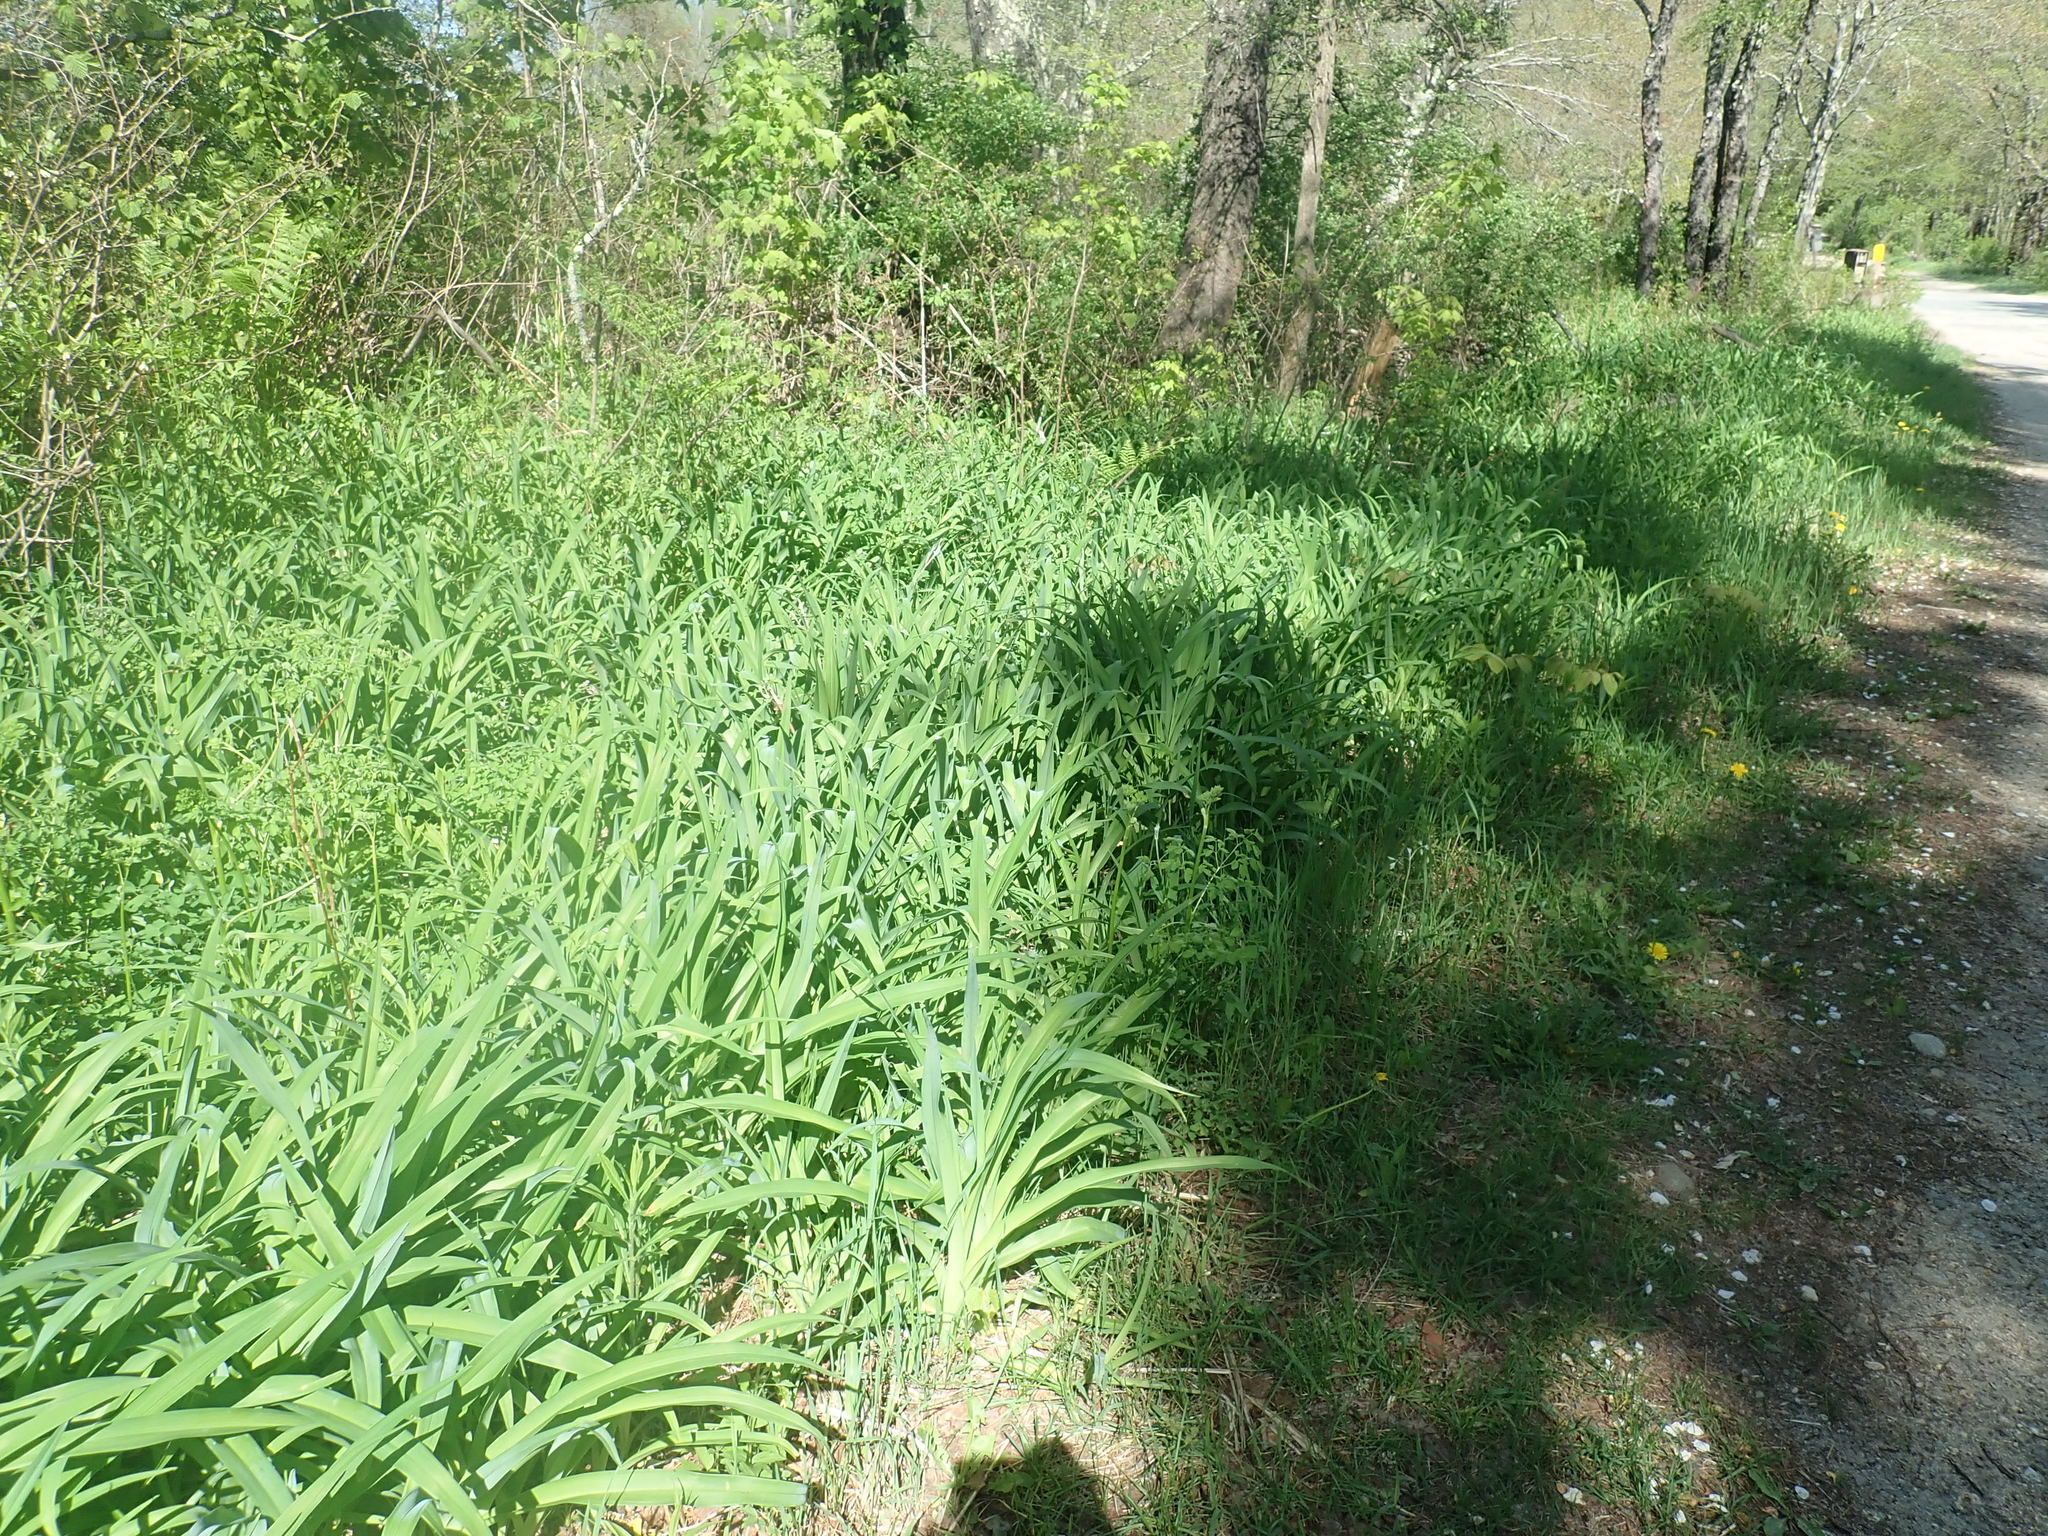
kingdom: Plantae
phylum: Tracheophyta
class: Liliopsida
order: Asparagales
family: Asphodelaceae
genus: Hemerocallis
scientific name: Hemerocallis fulva
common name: Orange day-lily
